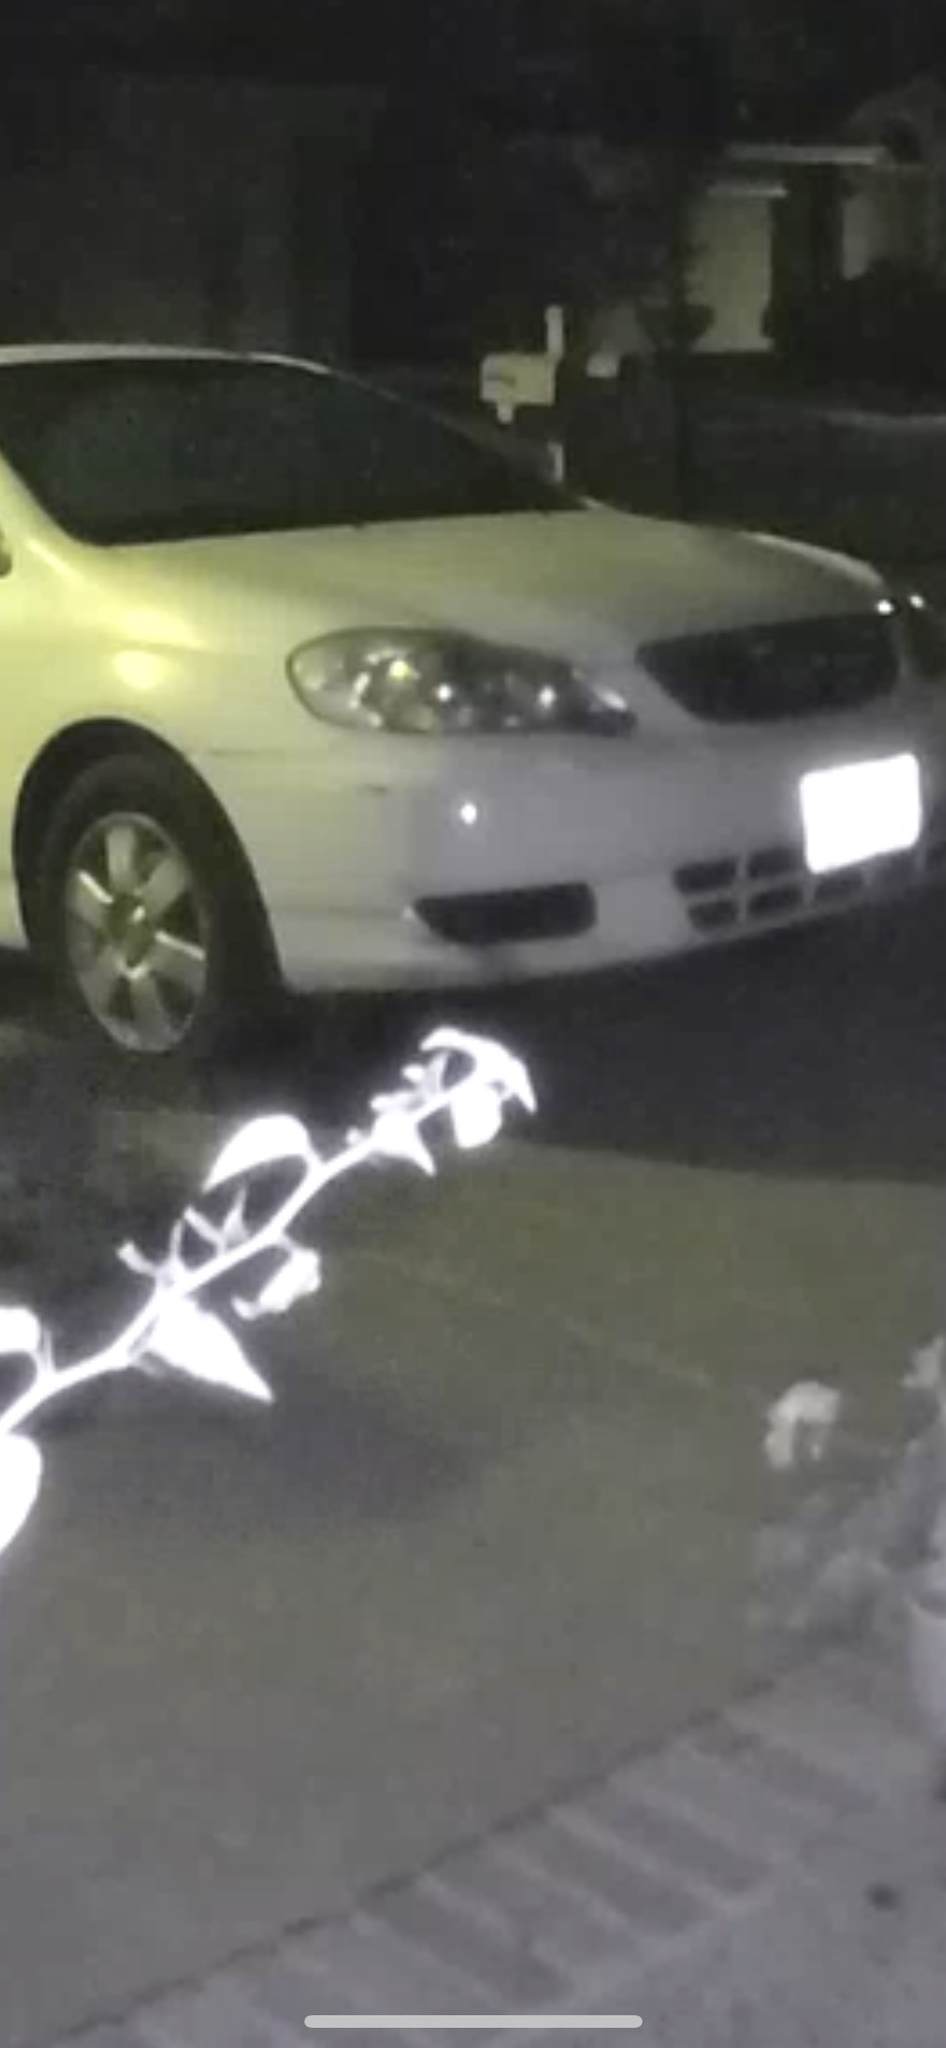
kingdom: Animalia
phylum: Chordata
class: Mammalia
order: Carnivora
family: Procyonidae
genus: Procyon
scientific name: Procyon lotor
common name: Raccoon
